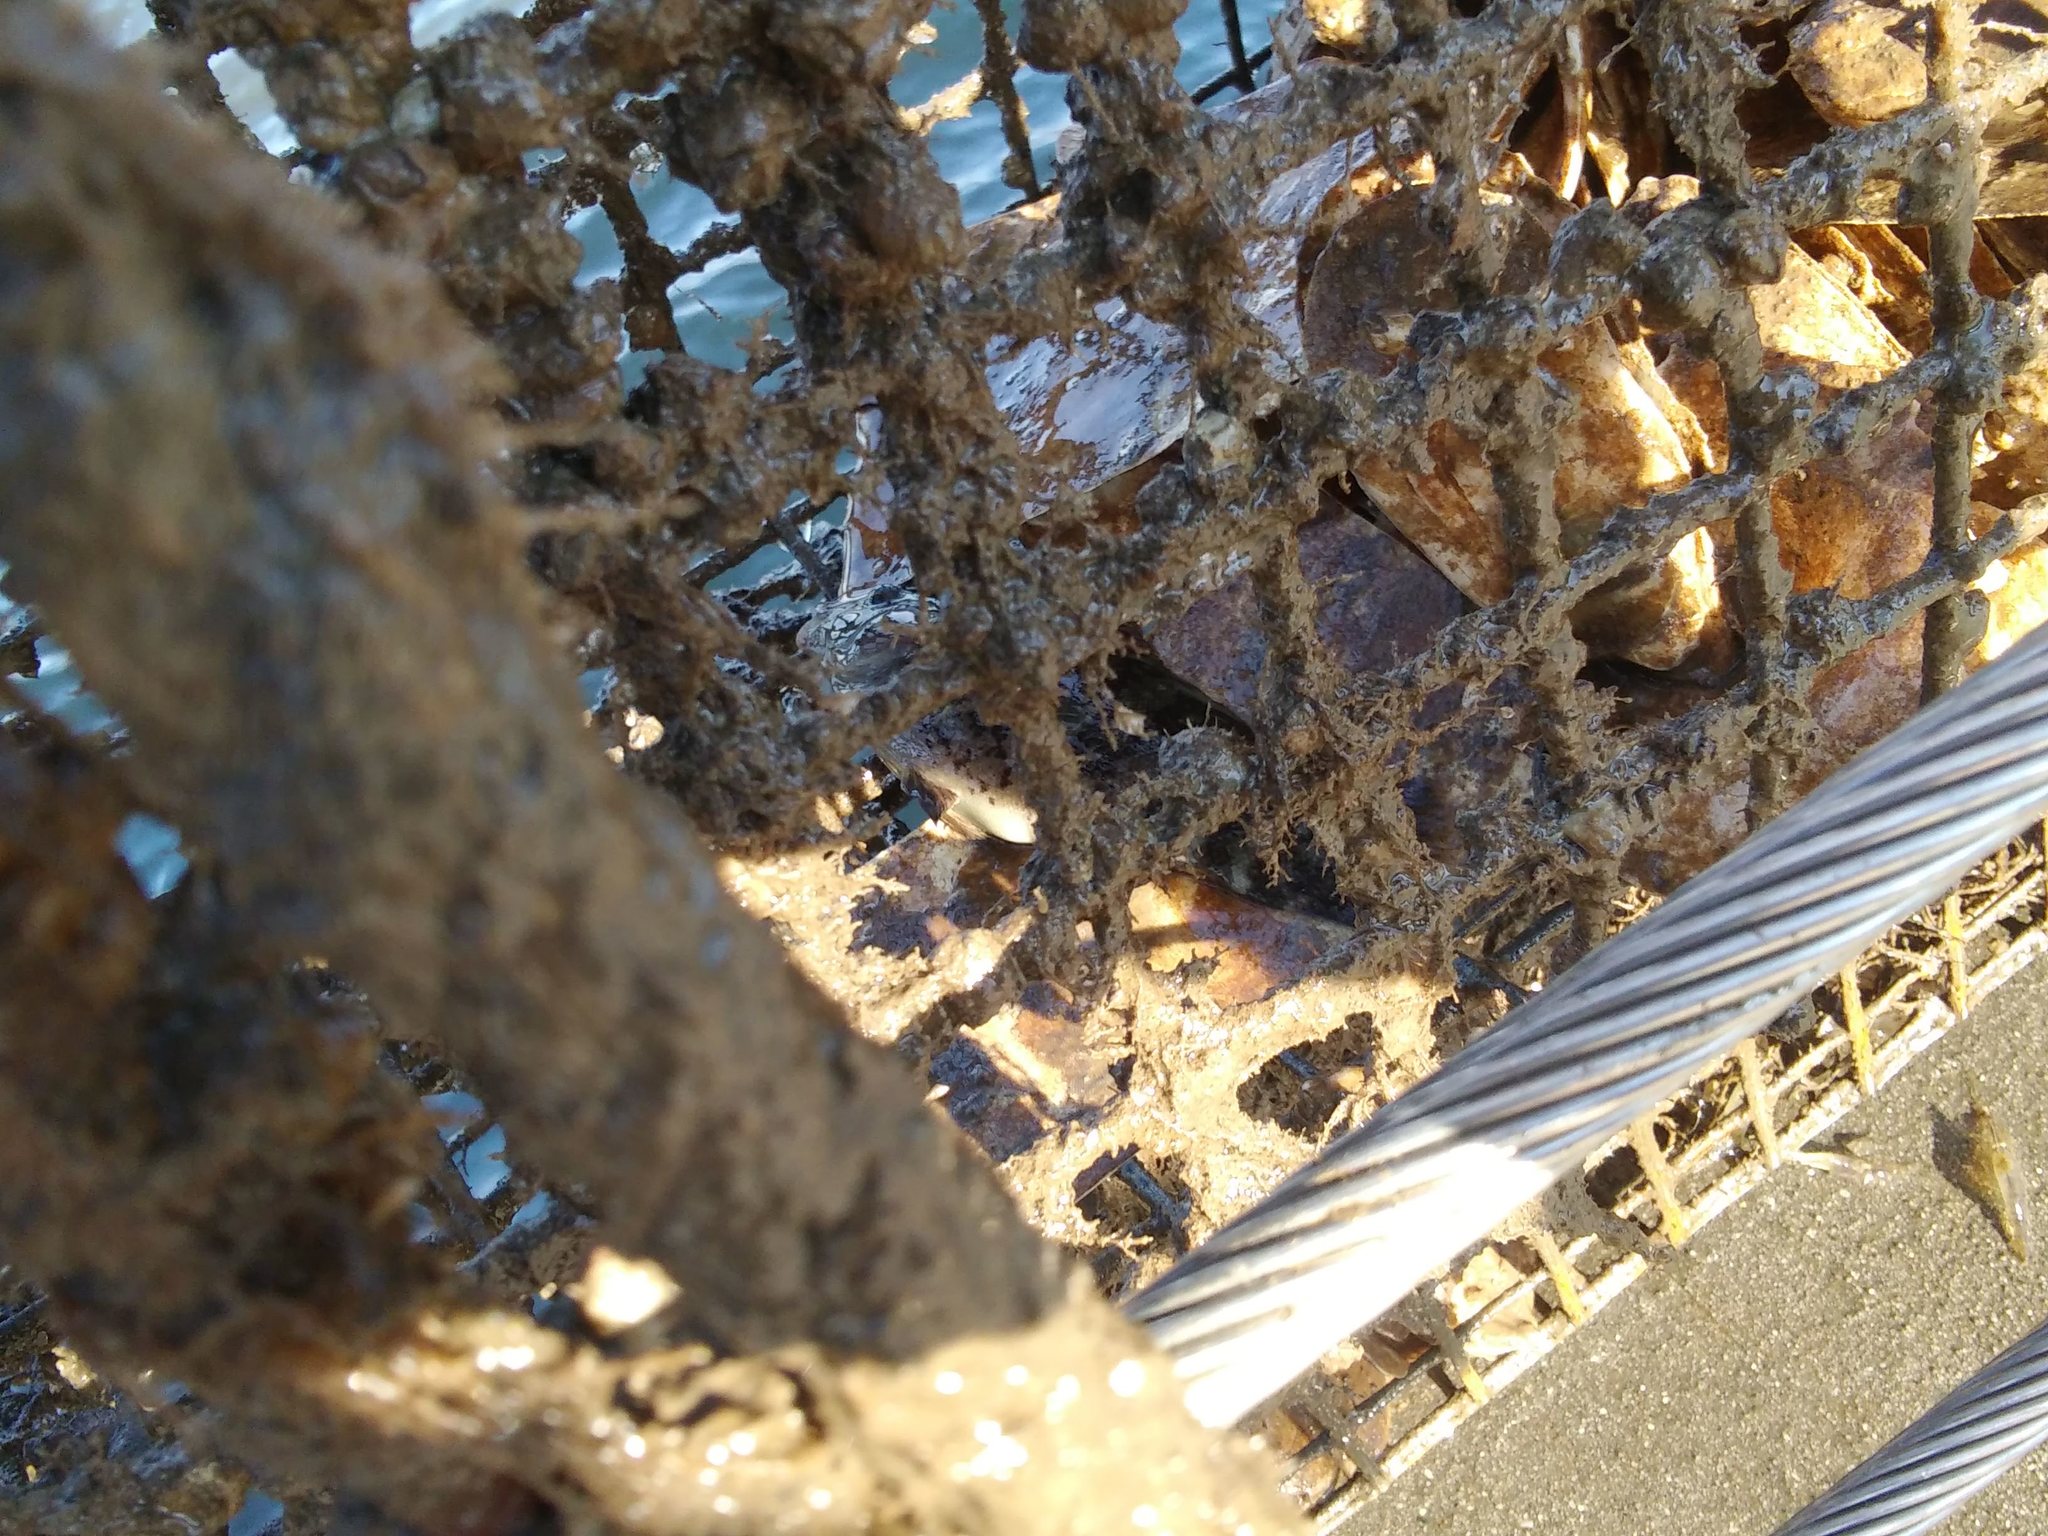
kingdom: Animalia
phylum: Chordata
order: Perciformes
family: Labridae
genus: Tautoga
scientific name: Tautoga onitis
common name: Tautog
